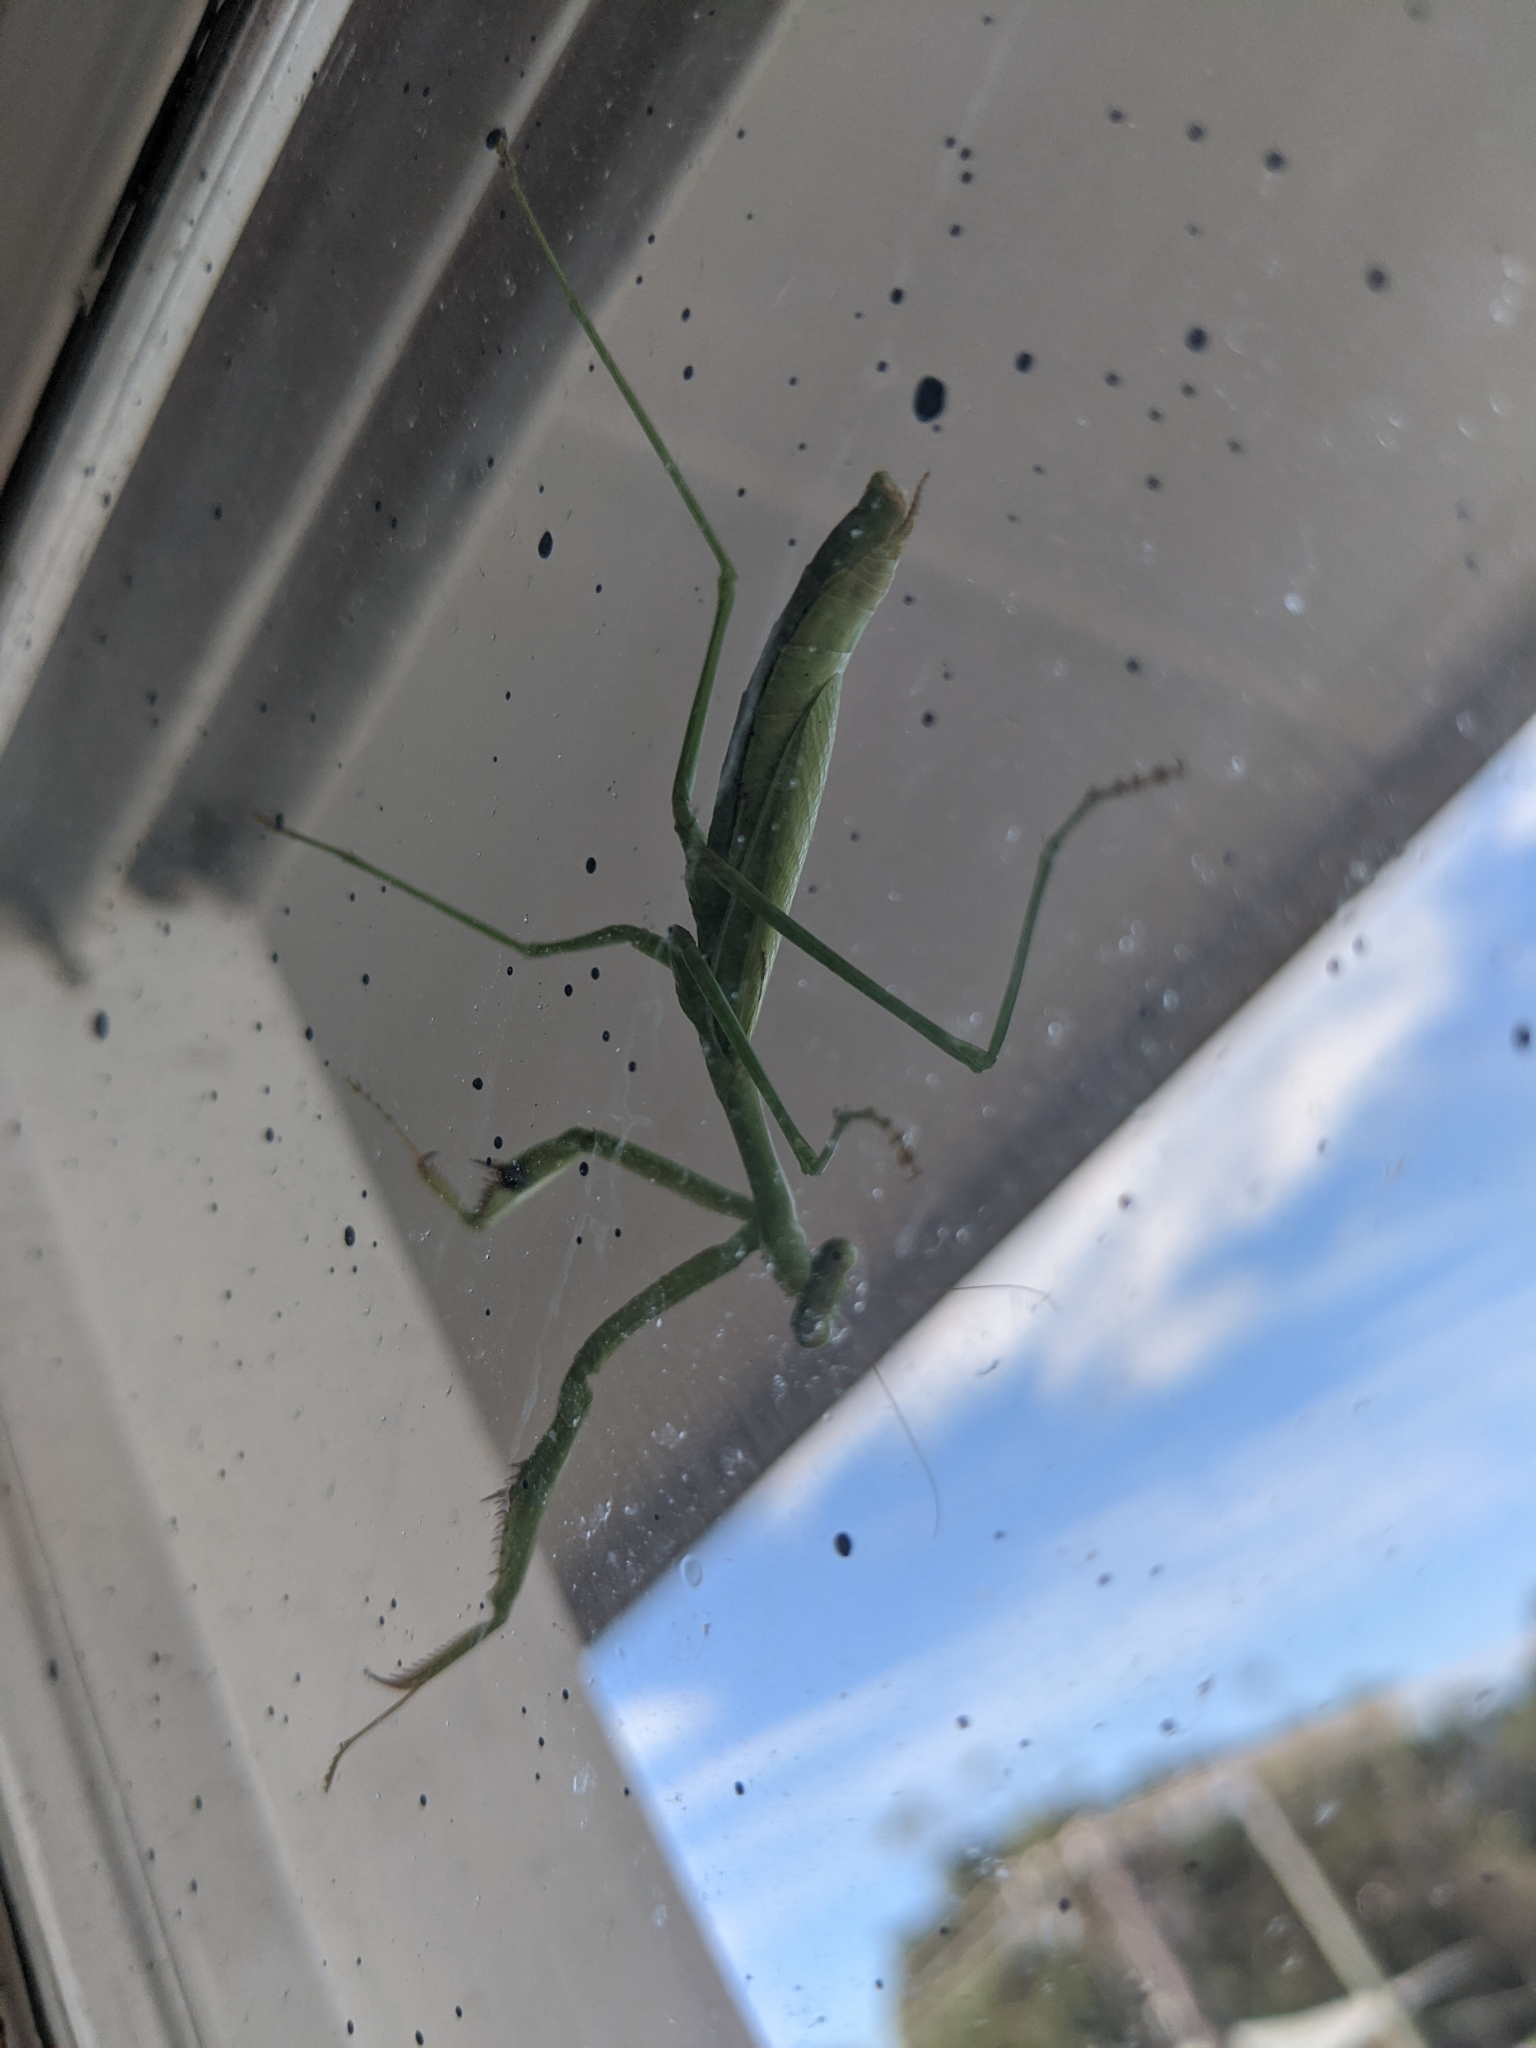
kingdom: Animalia
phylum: Arthropoda
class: Insecta
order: Mantodea
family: Mantidae
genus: Pseudomantis
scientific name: Pseudomantis albofimbriata
